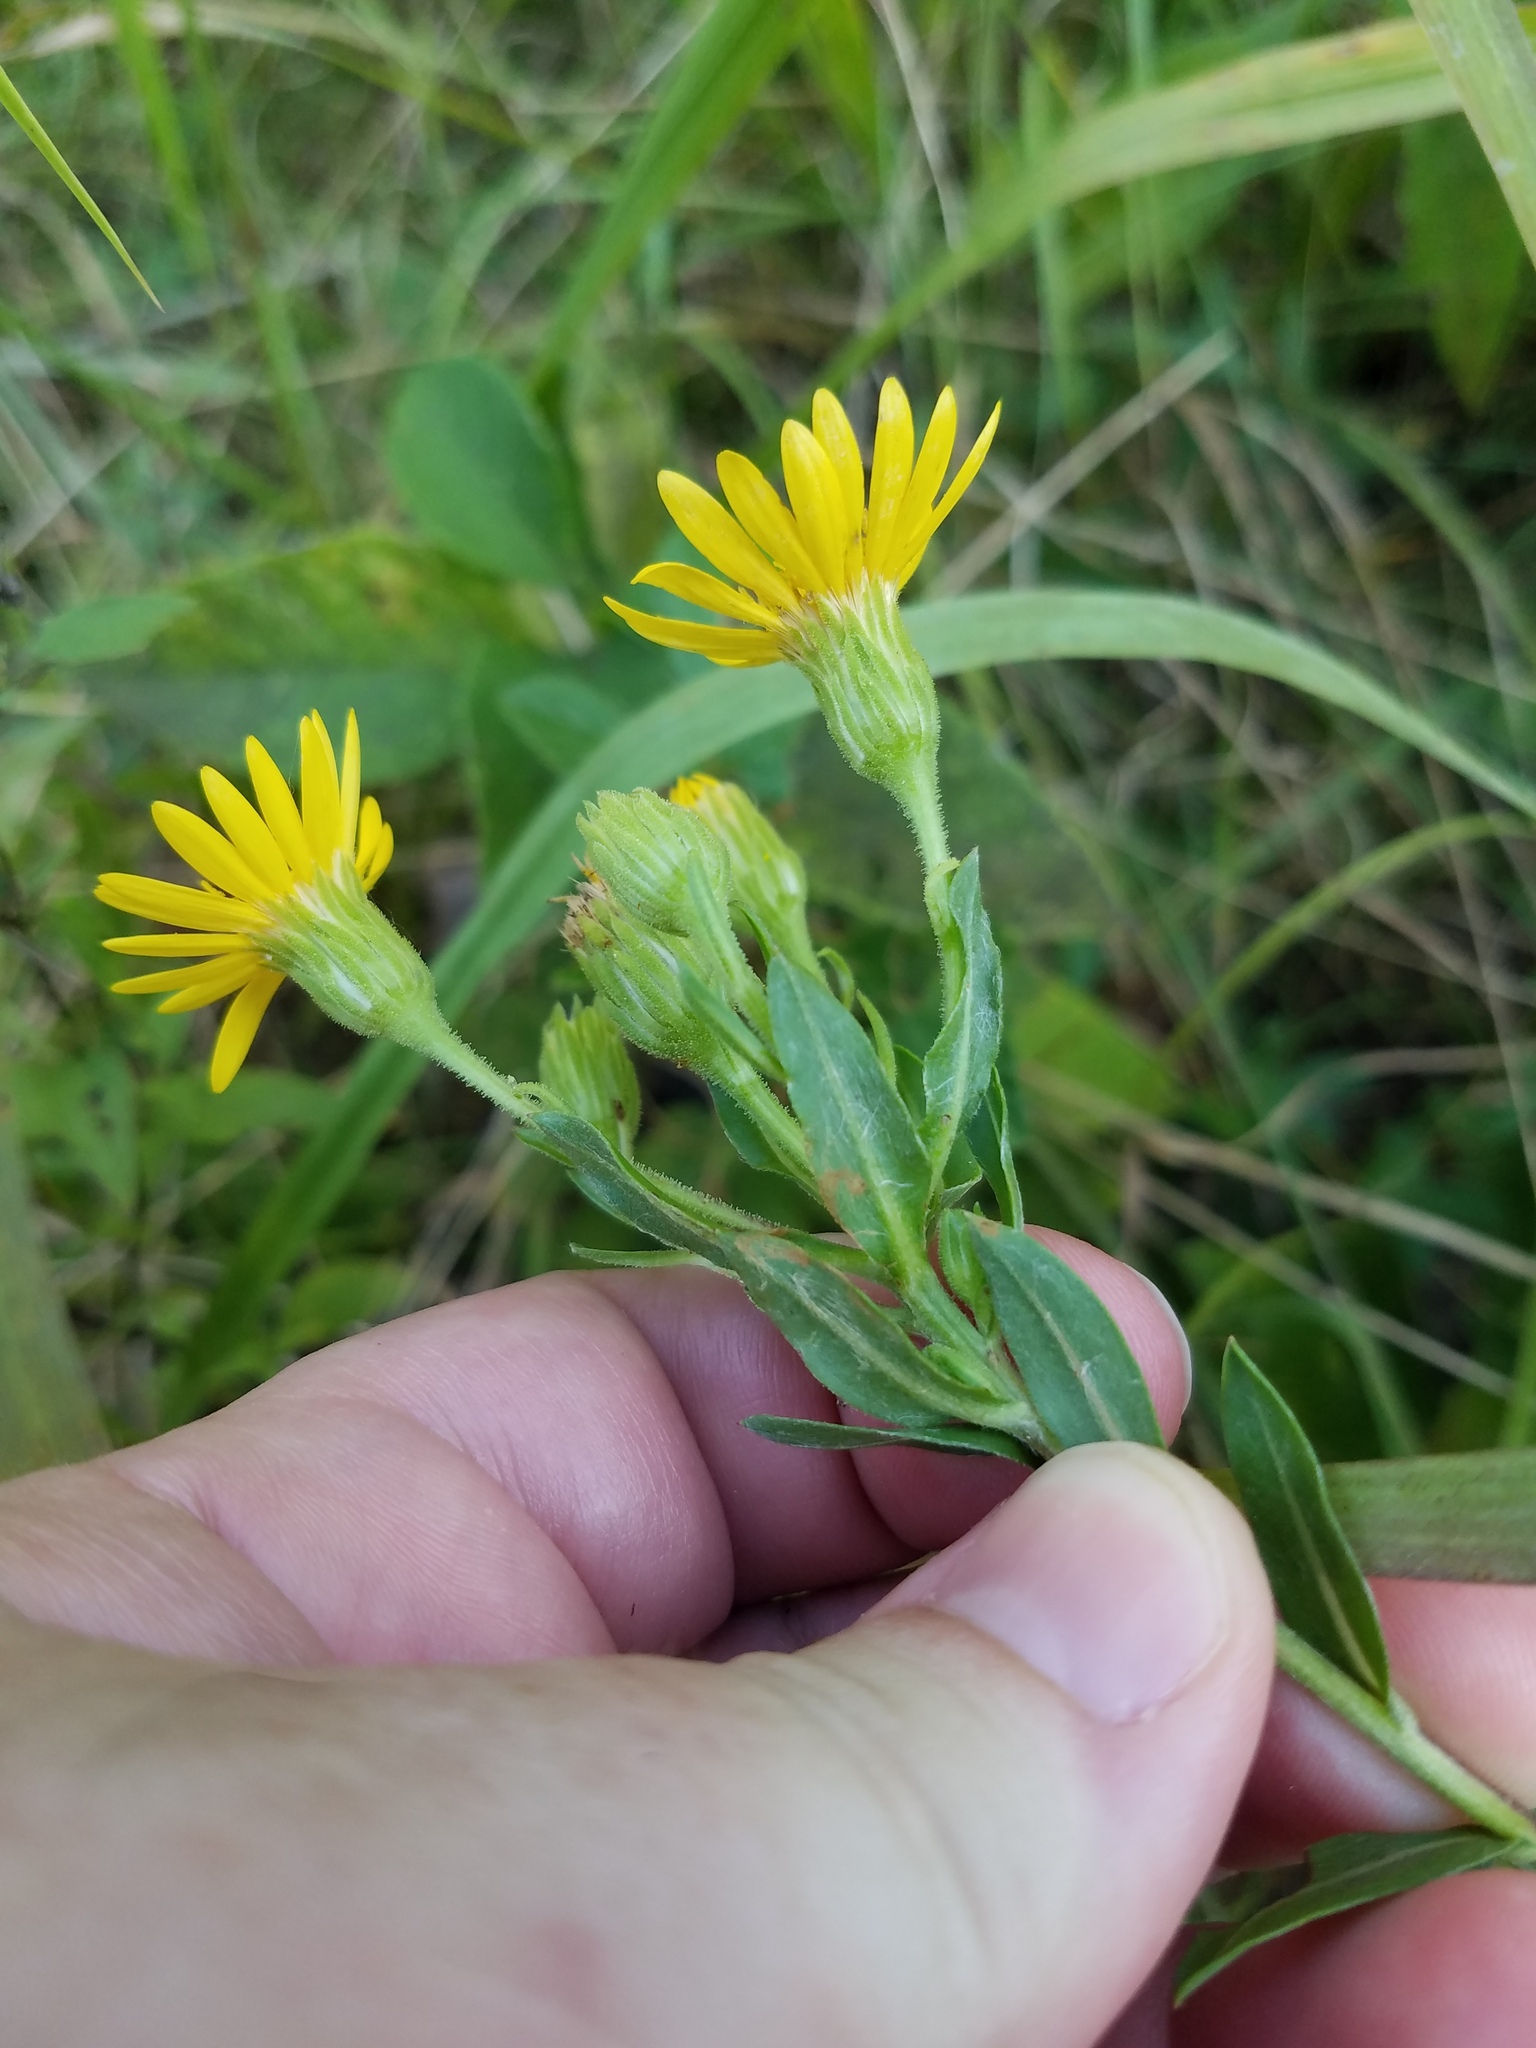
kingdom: Plantae
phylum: Tracheophyta
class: Magnoliopsida
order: Asterales
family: Asteraceae
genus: Chrysopsis
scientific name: Chrysopsis mariana
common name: Maryland golden-aster
